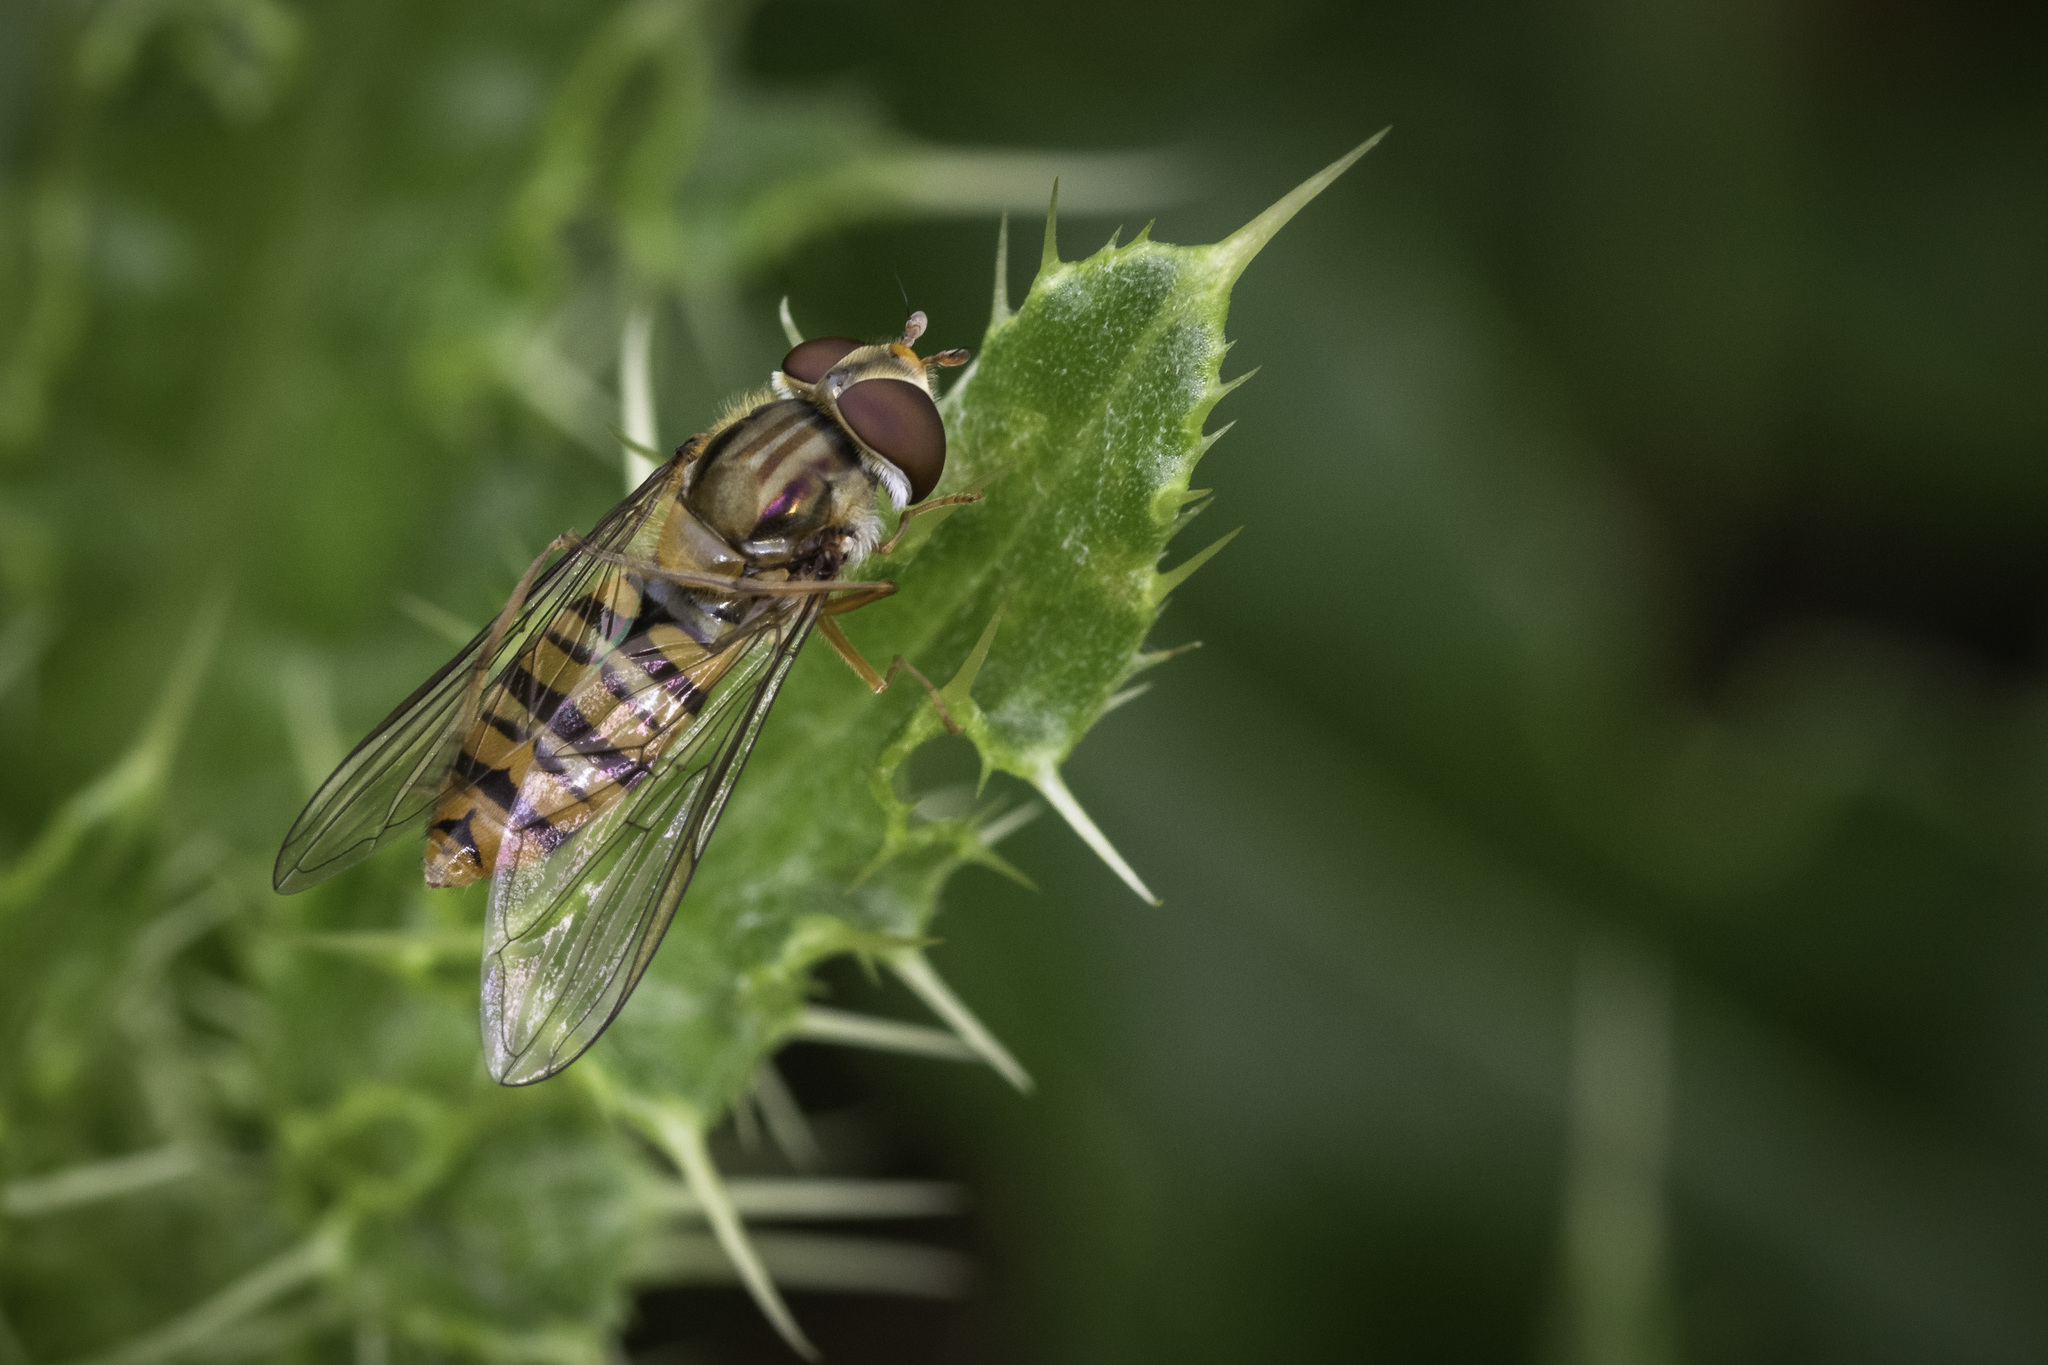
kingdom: Animalia
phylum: Arthropoda
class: Insecta
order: Diptera
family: Syrphidae
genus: Episyrphus
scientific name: Episyrphus balteatus
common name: Marmalade hoverfly
